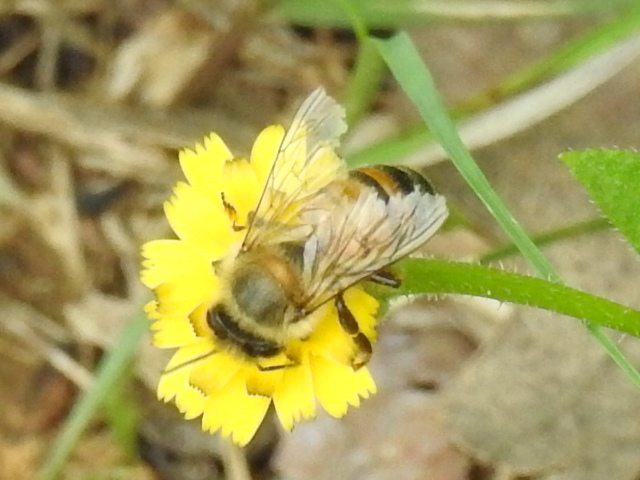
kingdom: Animalia
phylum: Arthropoda
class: Insecta
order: Hymenoptera
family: Apidae
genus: Apis
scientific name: Apis mellifera
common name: Honey bee
